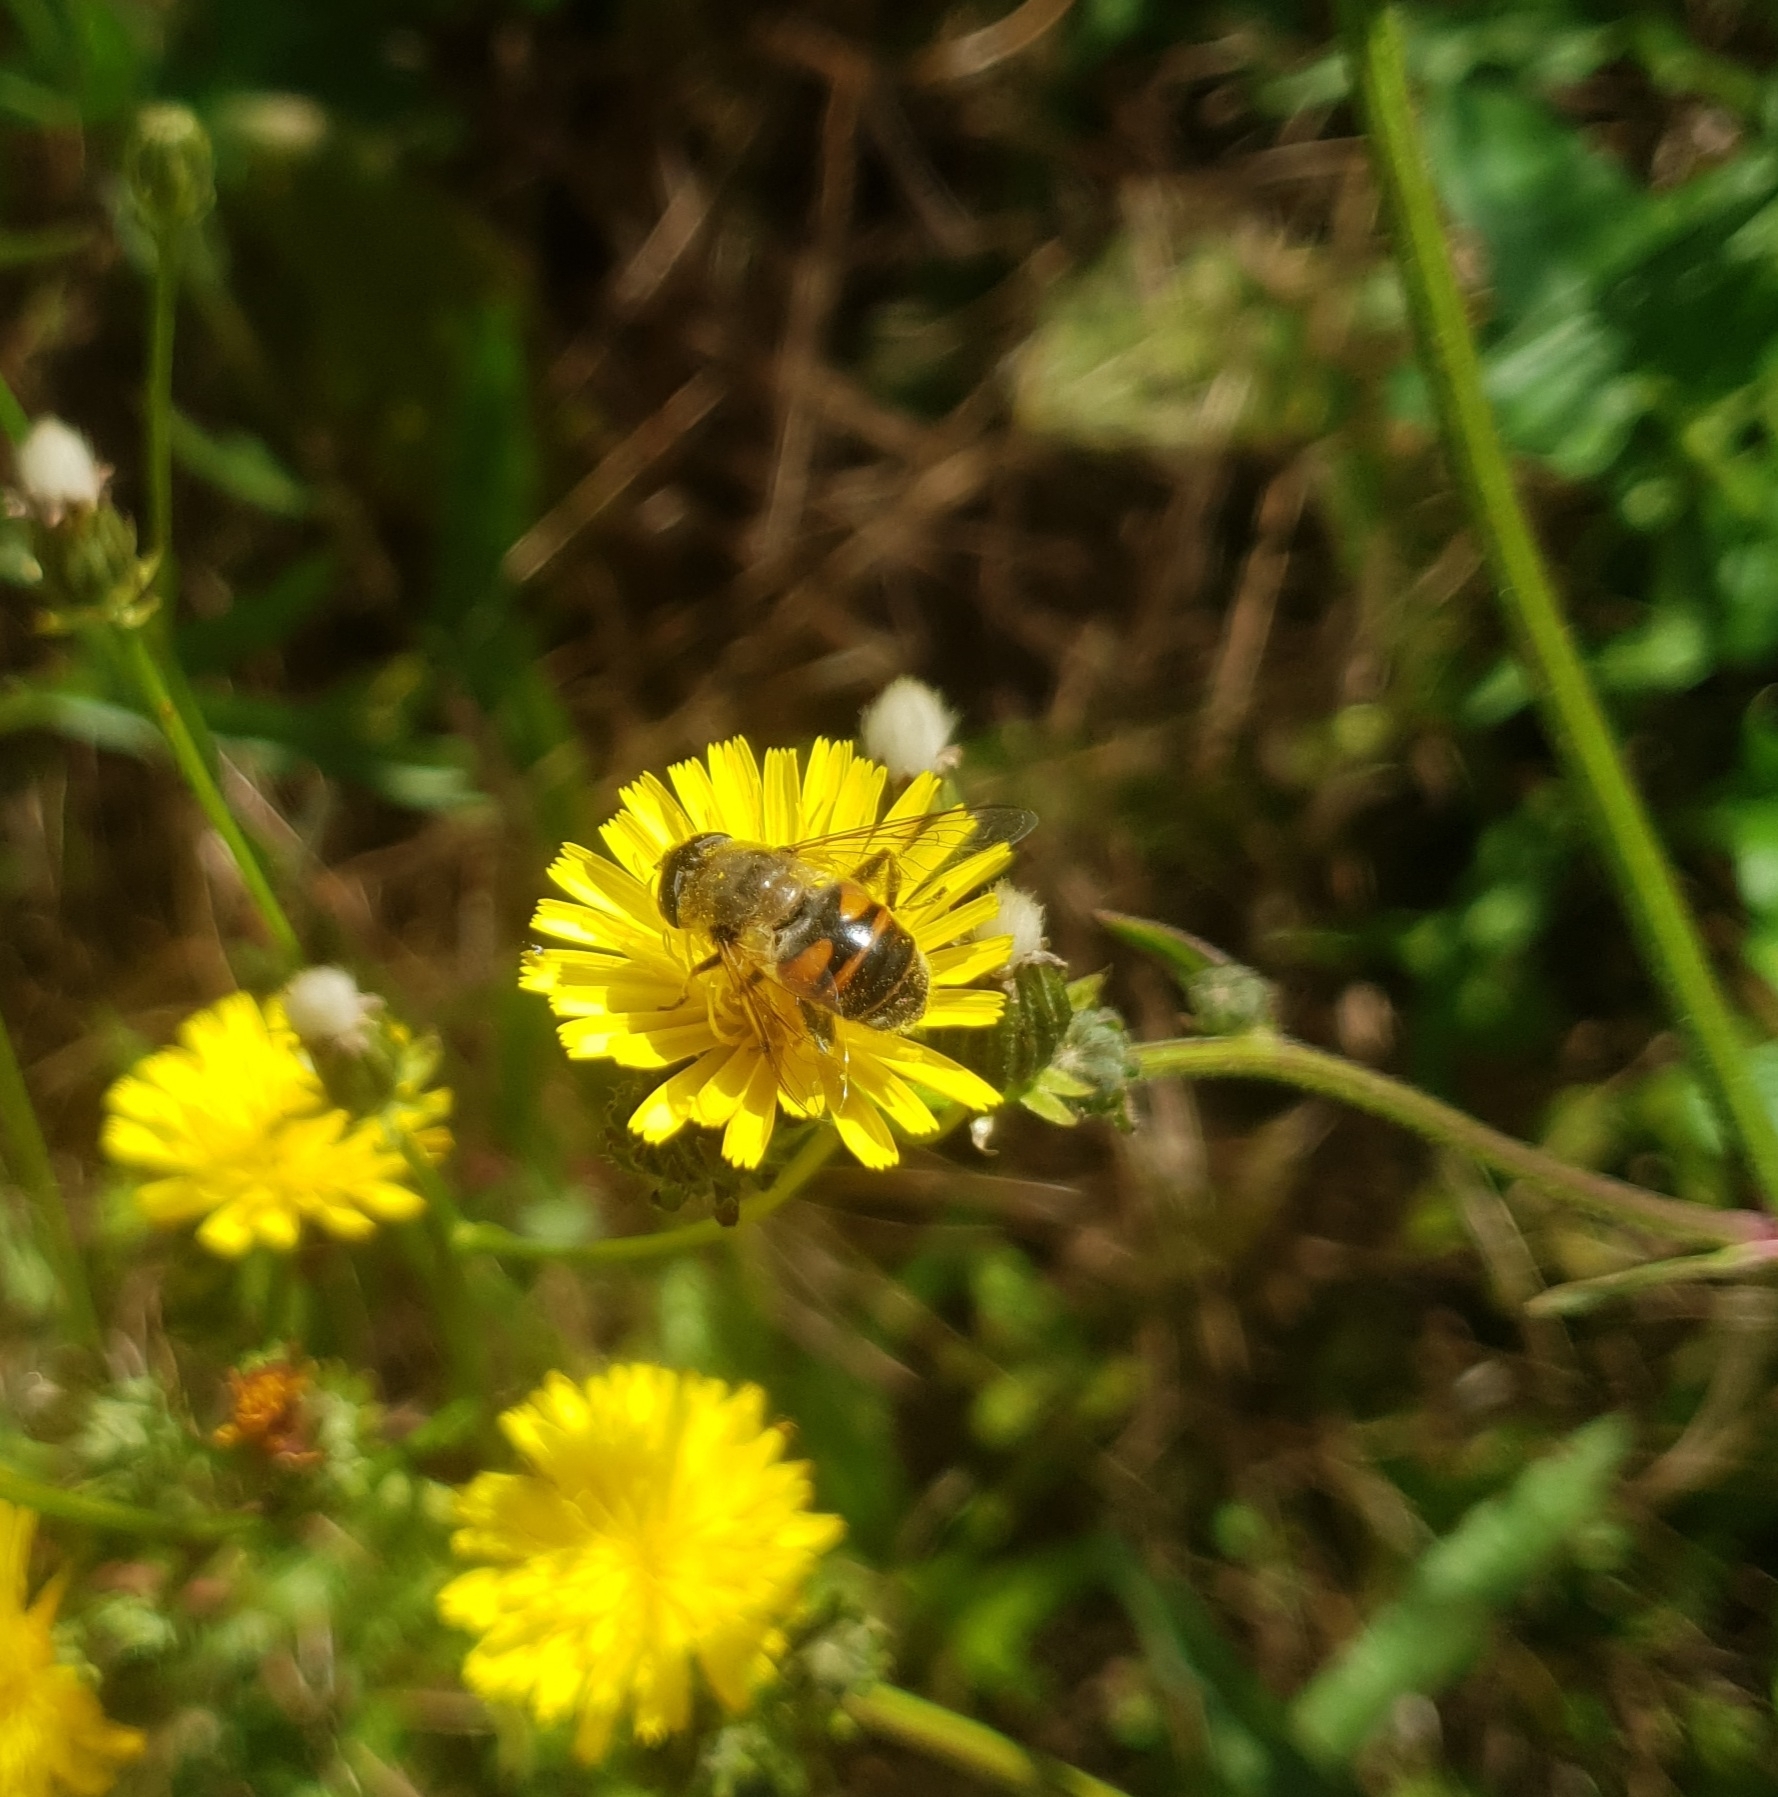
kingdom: Animalia
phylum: Arthropoda
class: Insecta
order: Diptera
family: Syrphidae
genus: Eristalis
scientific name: Eristalis tenax
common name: Drone fly
